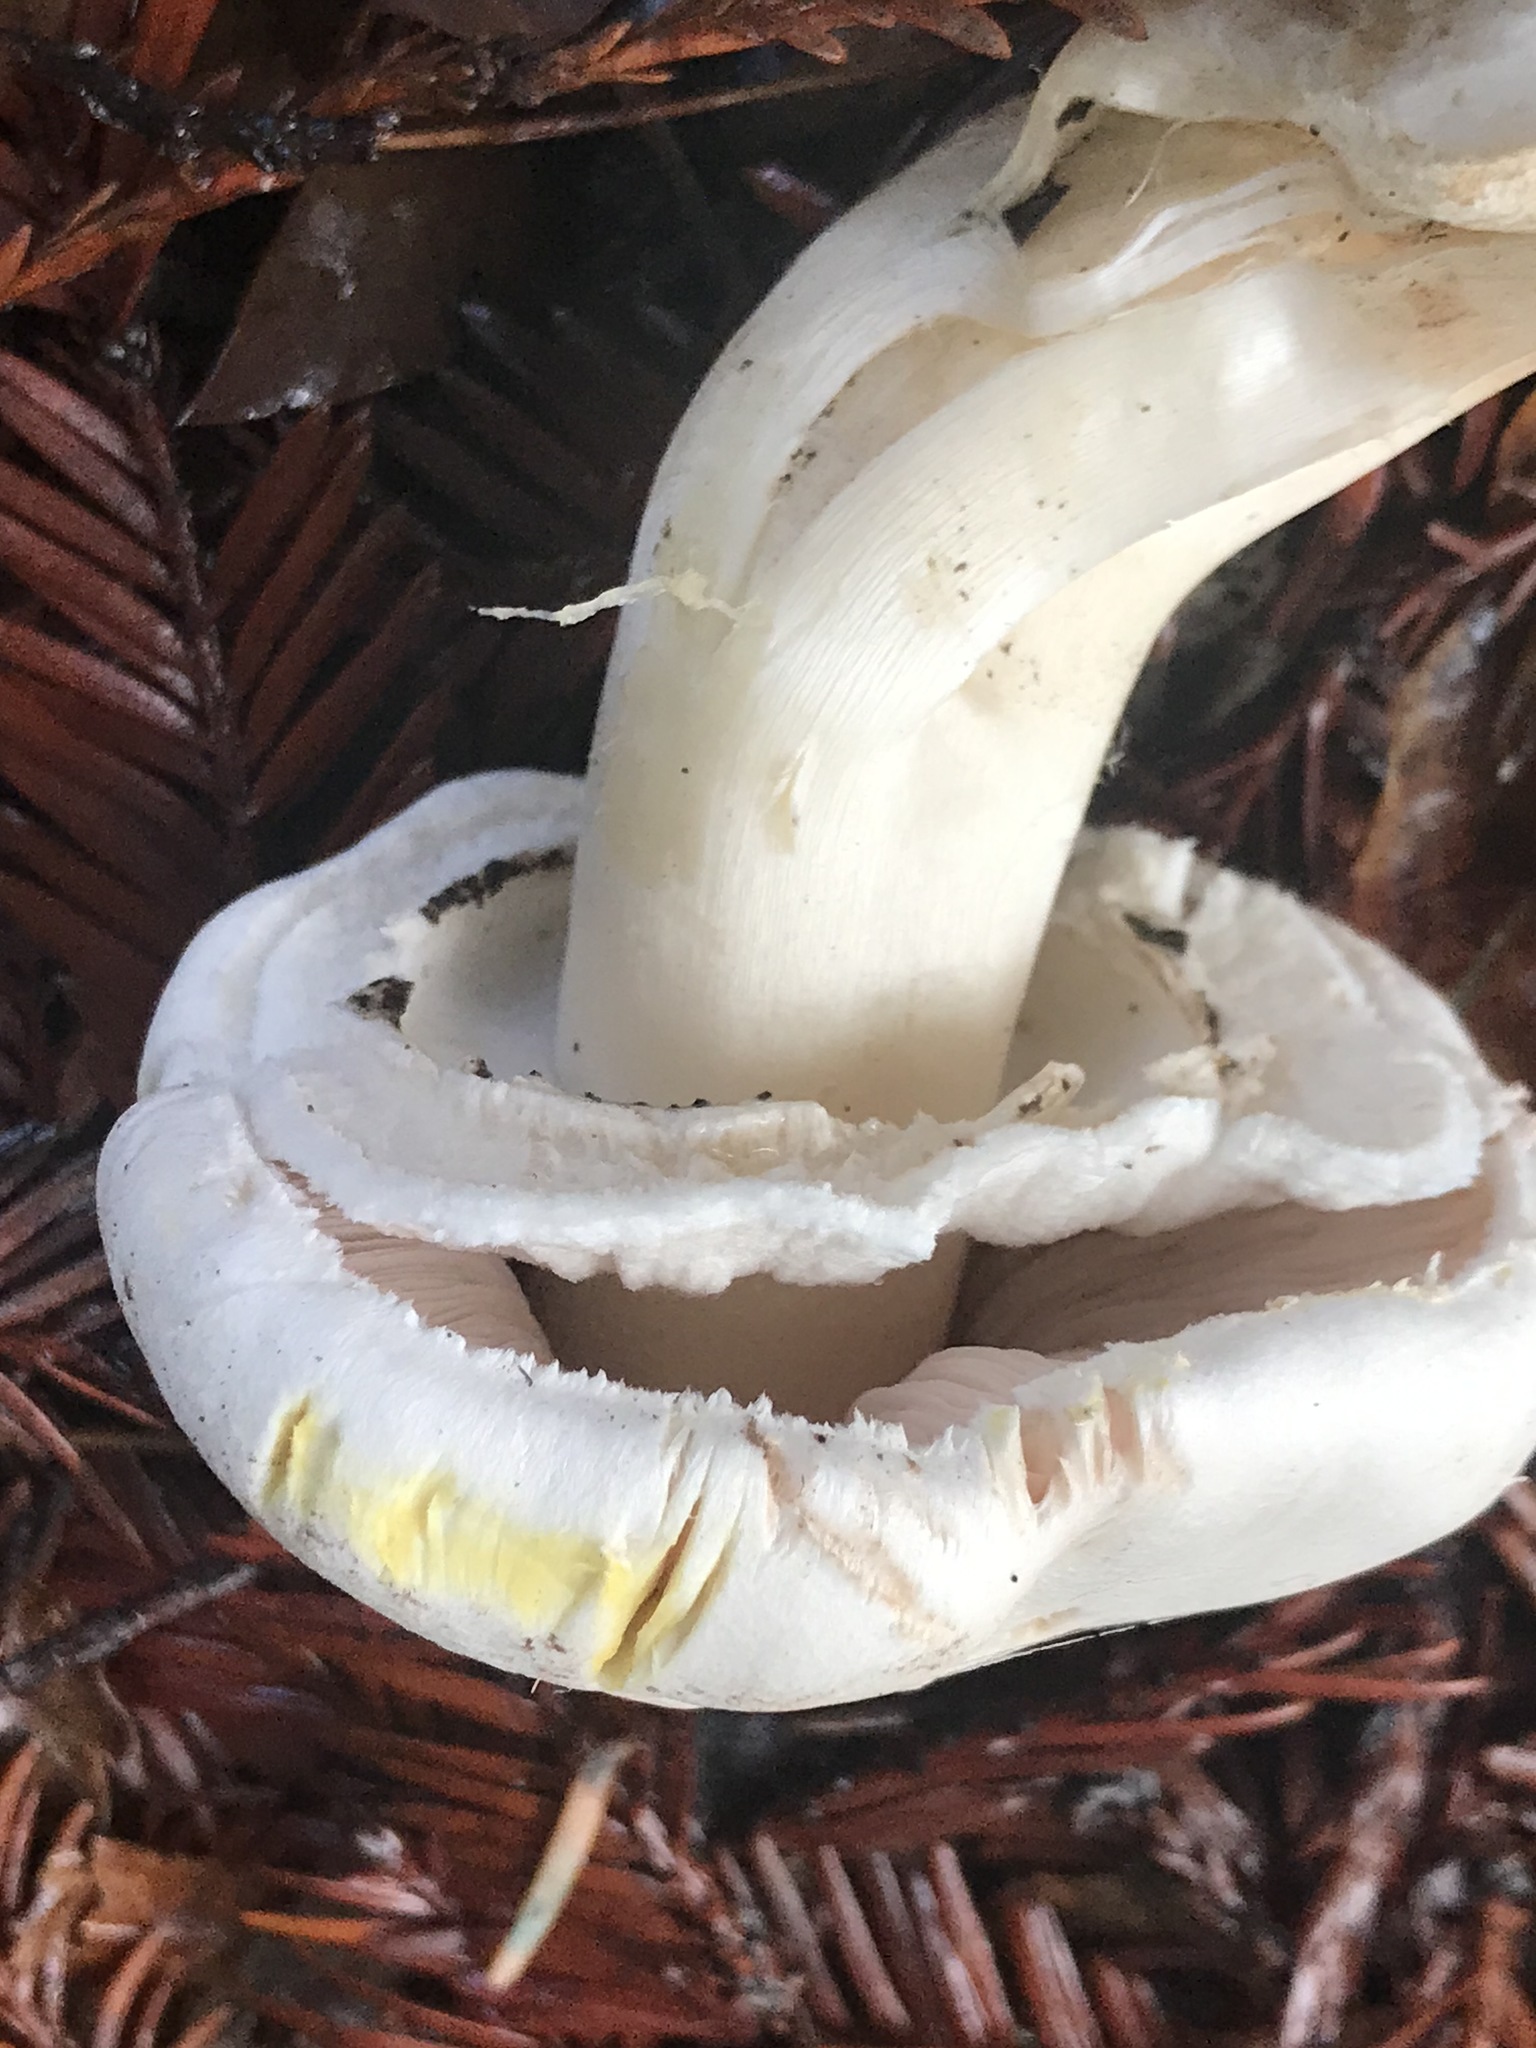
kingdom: Fungi
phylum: Basidiomycota
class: Agaricomycetes
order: Agaricales
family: Agaricaceae
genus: Agaricus
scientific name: Agaricus xanthodermus
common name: Yellow stainer
